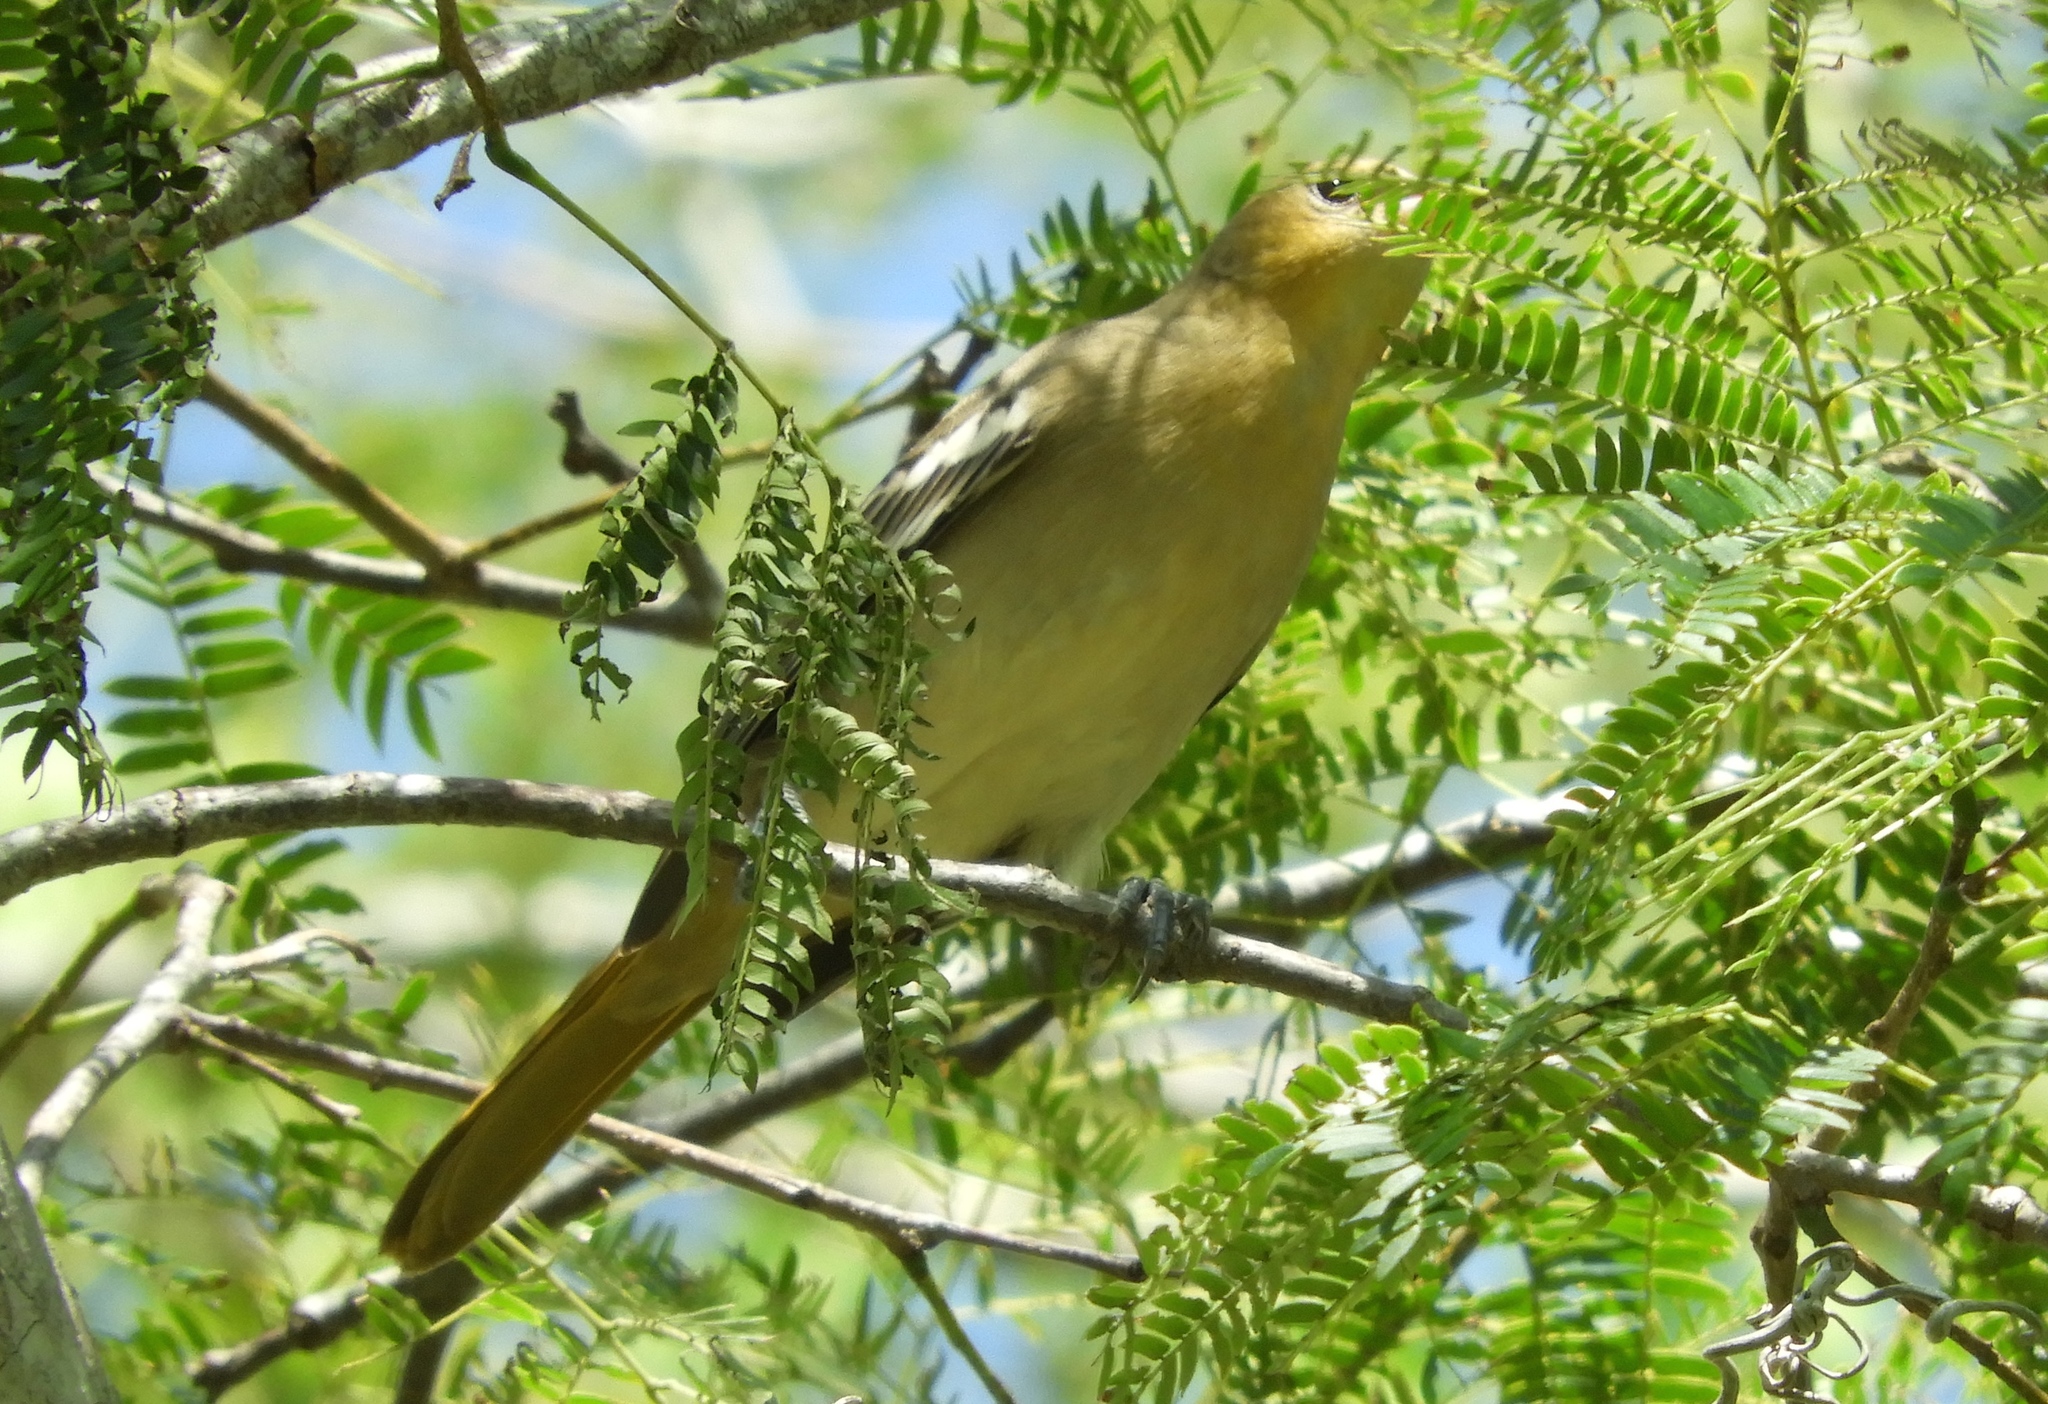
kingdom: Animalia
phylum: Chordata
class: Aves
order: Passeriformes
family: Icteridae
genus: Icterus
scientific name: Icterus
